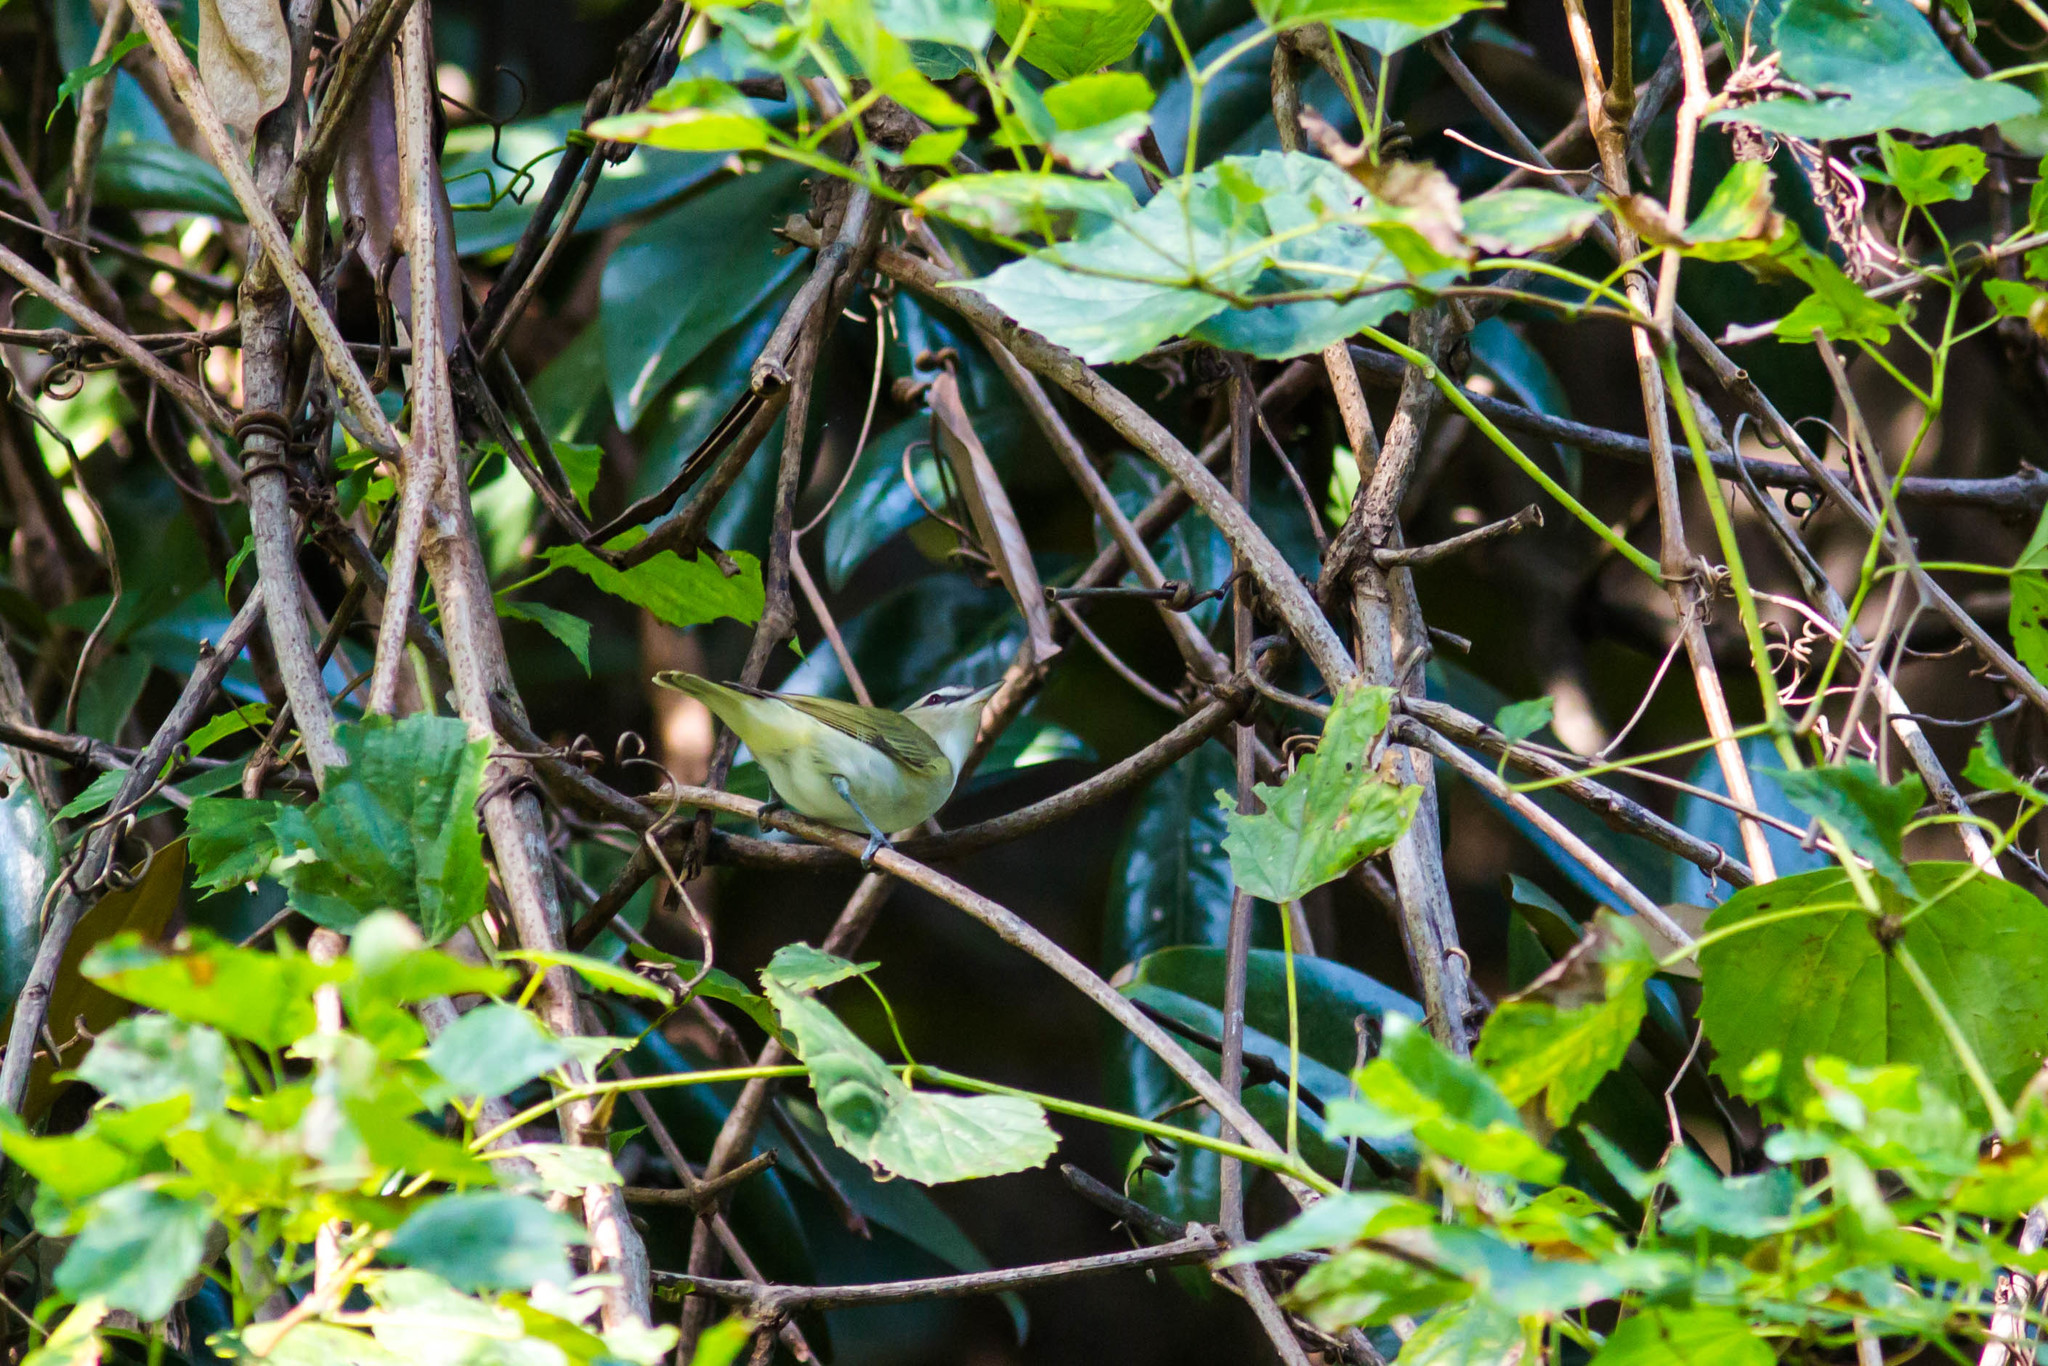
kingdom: Animalia
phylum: Chordata
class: Aves
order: Passeriformes
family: Vireonidae
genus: Vireo
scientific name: Vireo olivaceus
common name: Red-eyed vireo
